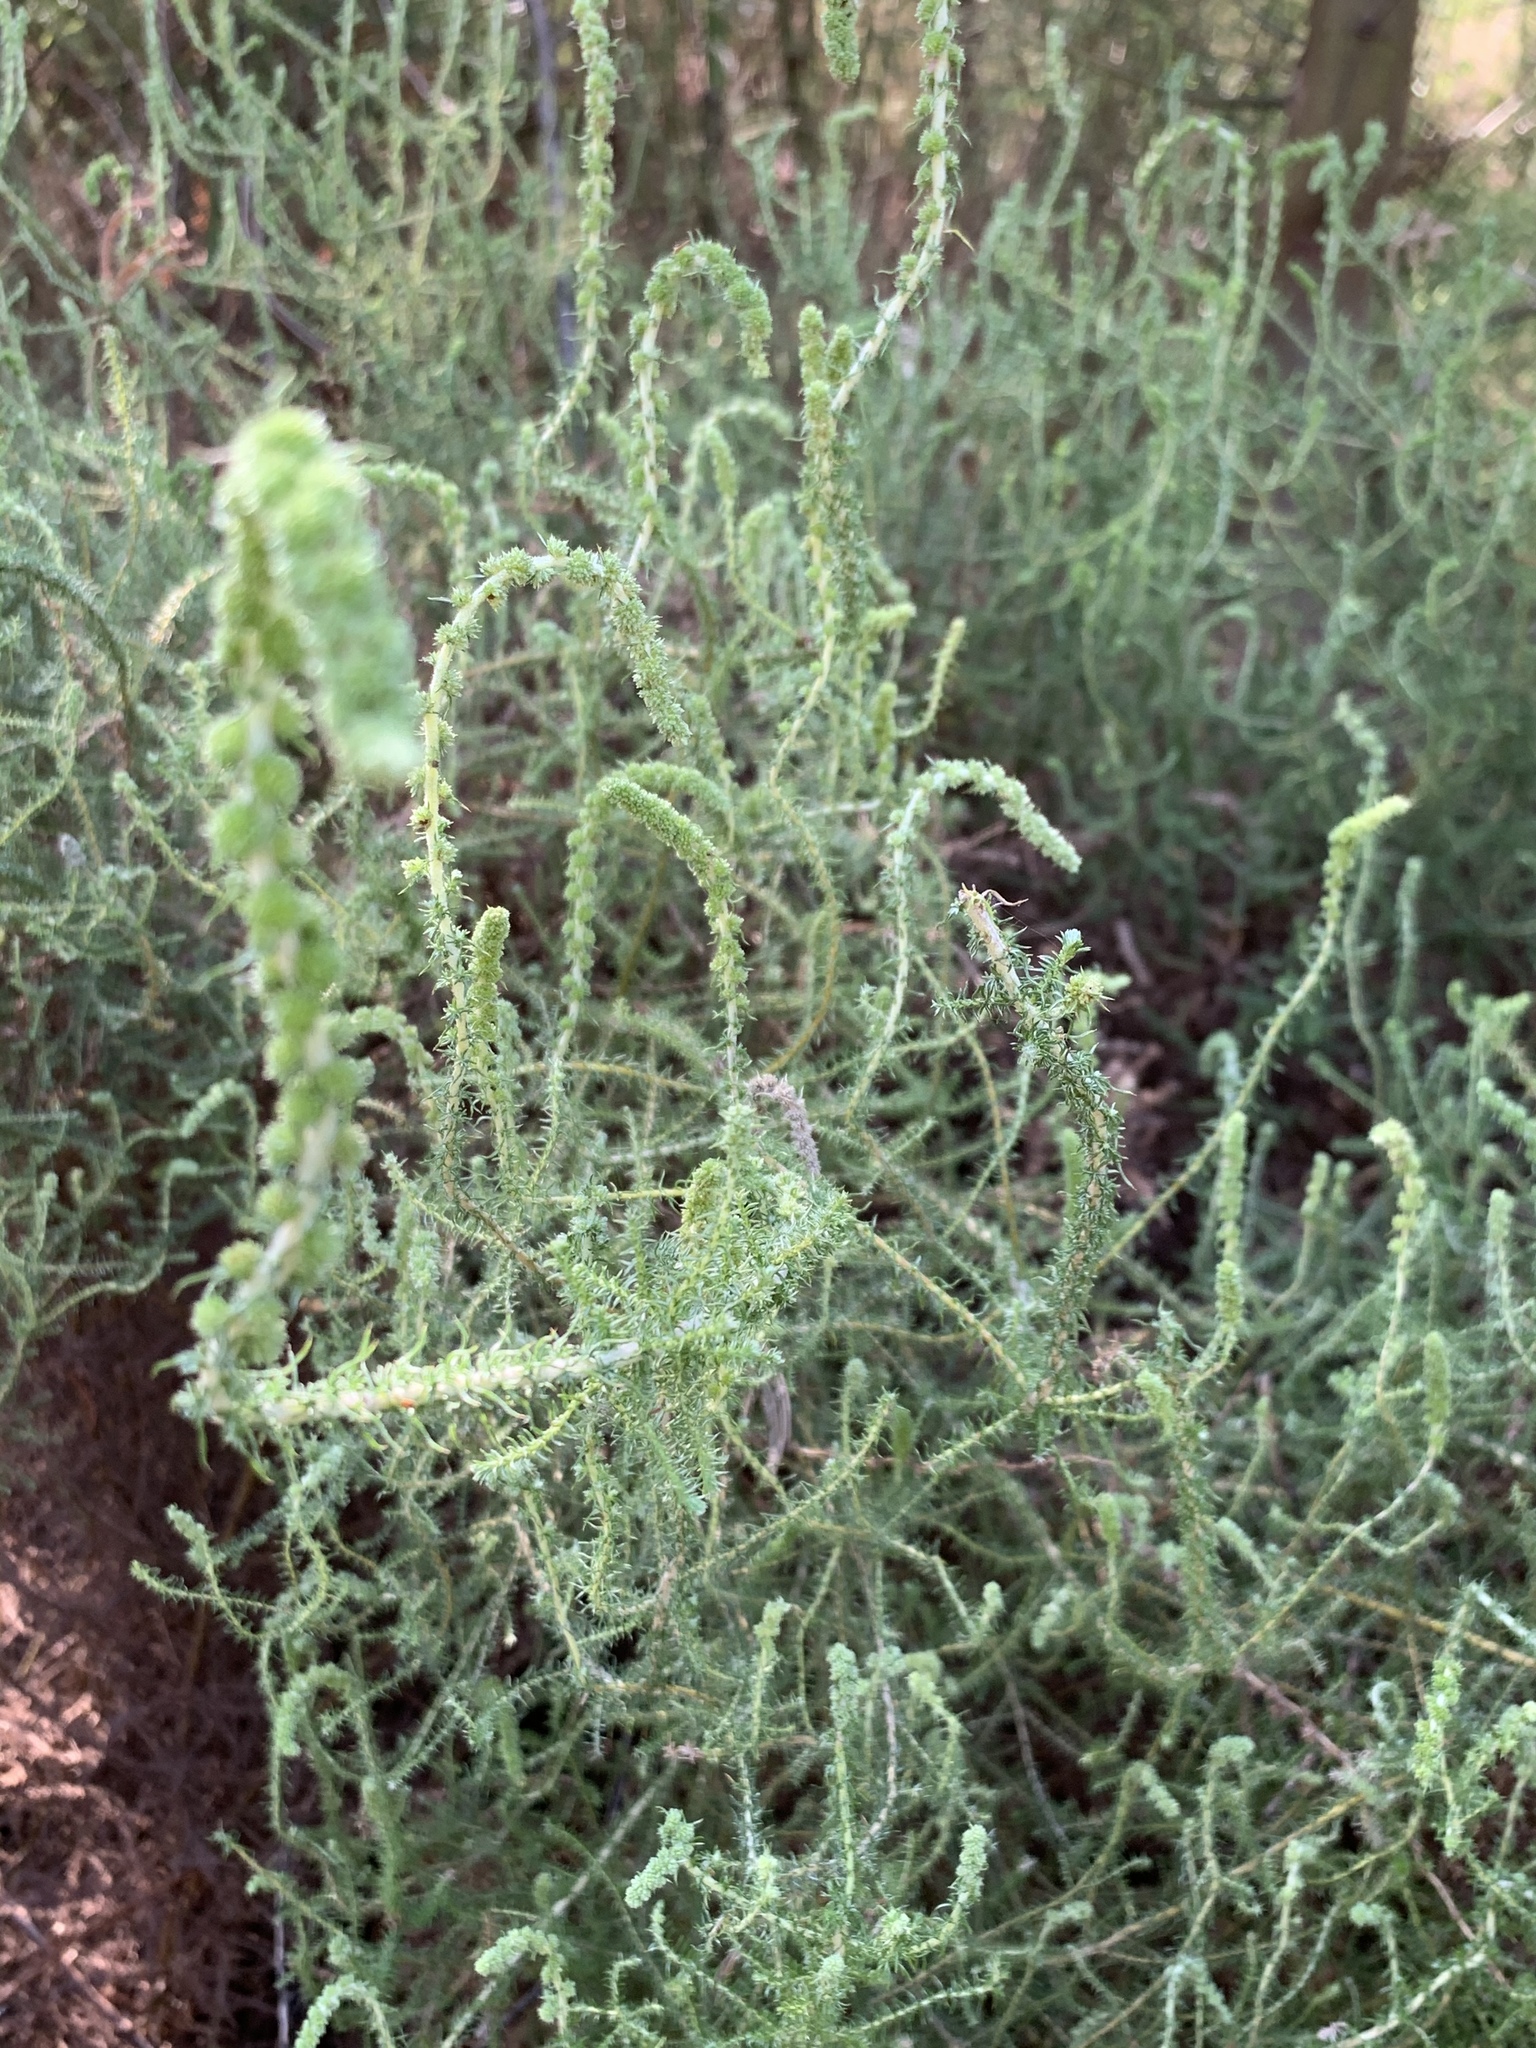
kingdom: Plantae
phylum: Tracheophyta
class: Magnoliopsida
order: Asterales
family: Asteraceae
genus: Seriphium
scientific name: Seriphium plumosum
